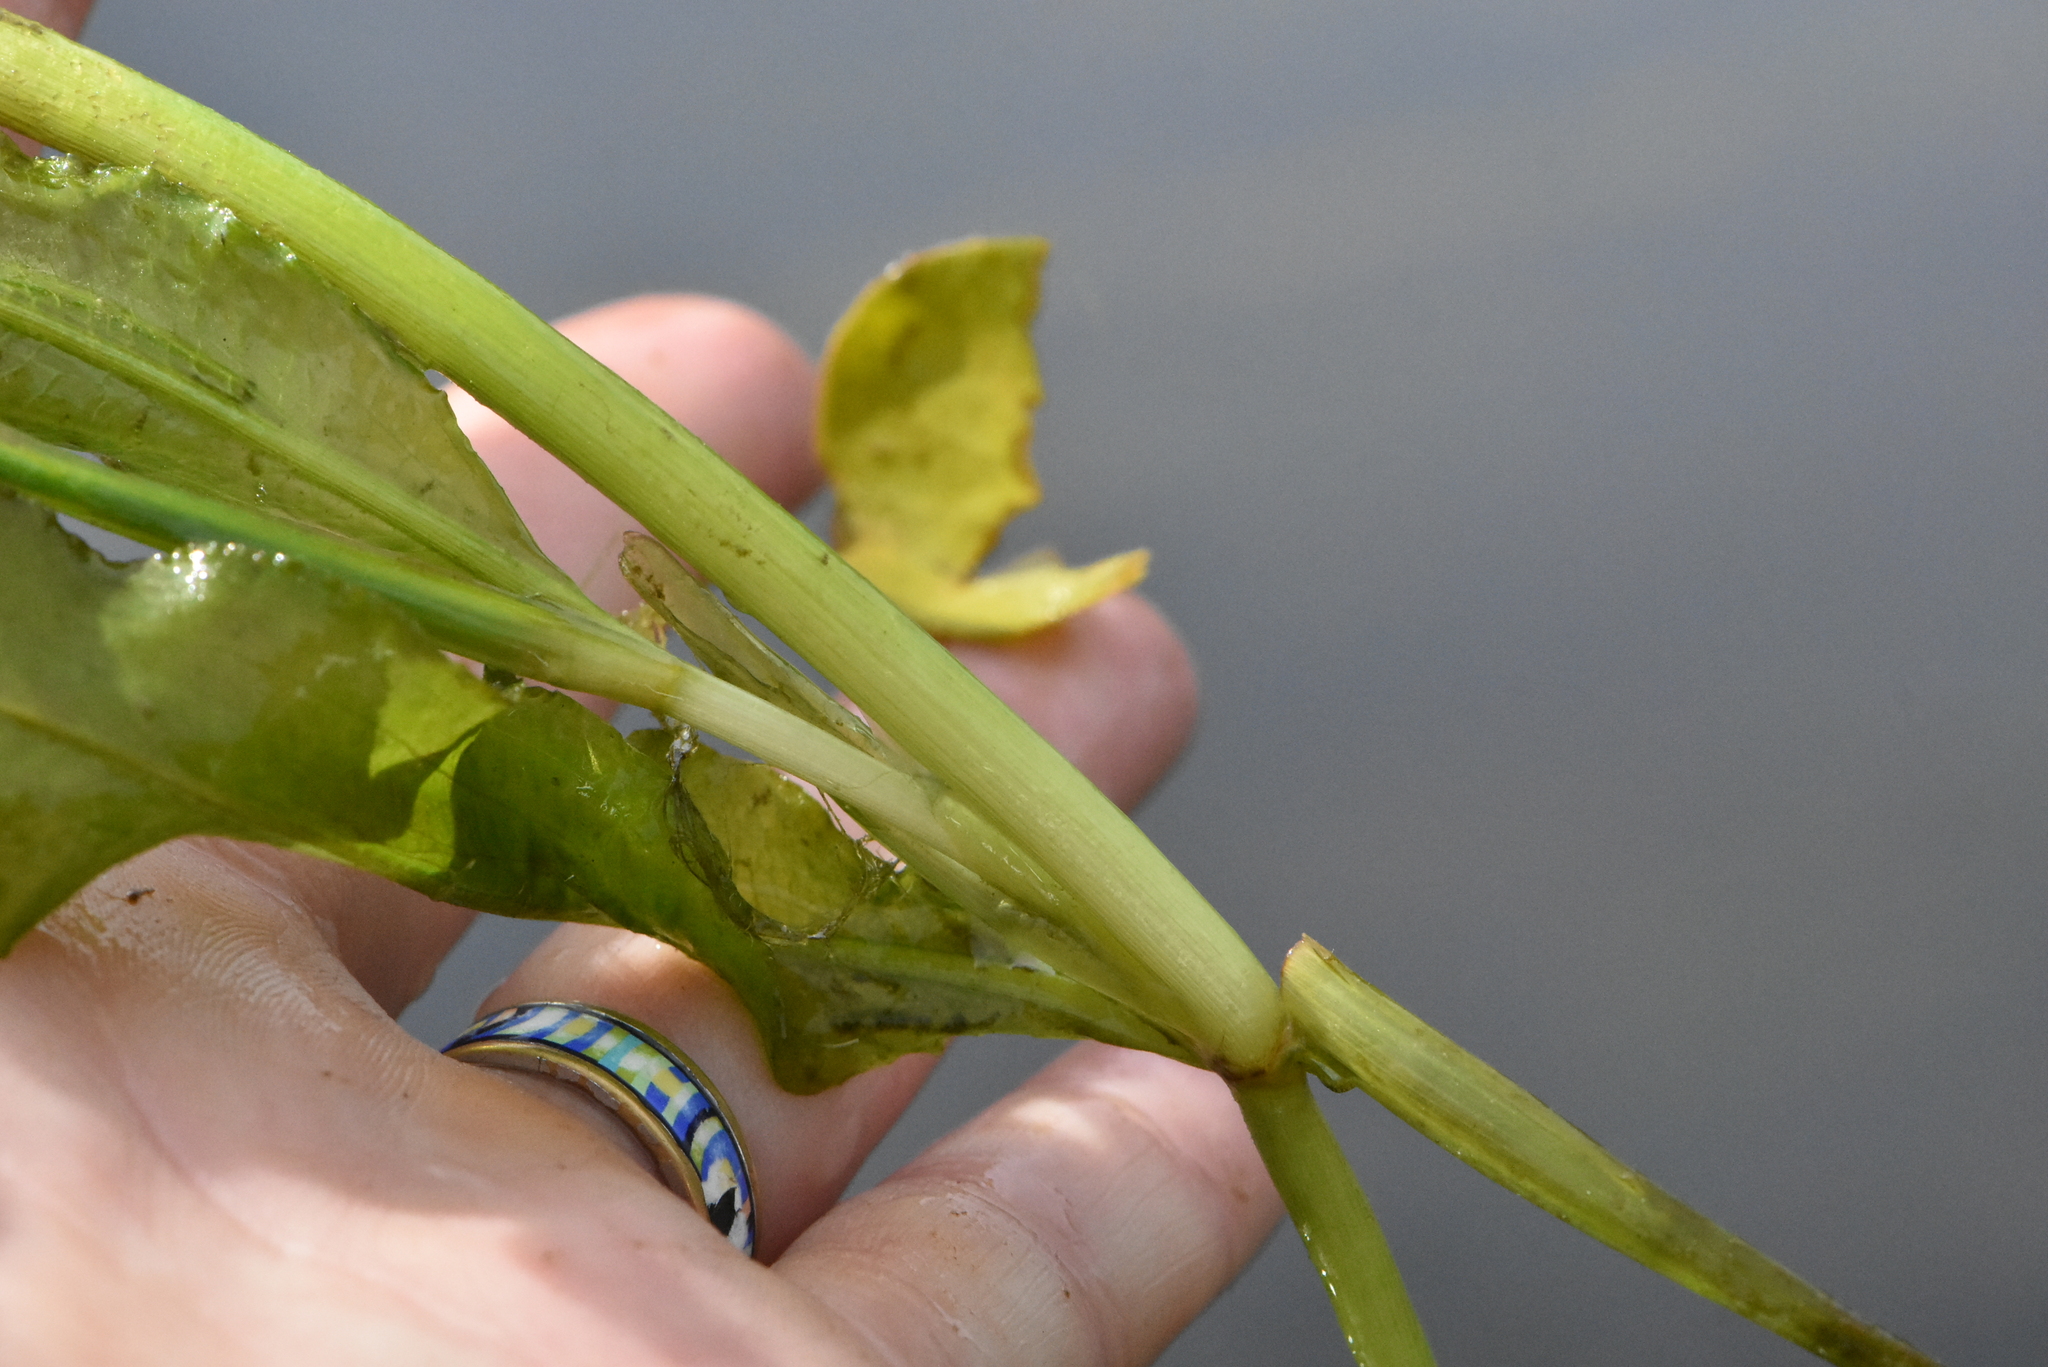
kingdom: Plantae
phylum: Tracheophyta
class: Liliopsida
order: Alismatales
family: Potamogetonaceae
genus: Potamogeton
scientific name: Potamogeton lucens
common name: Shining pondweed
